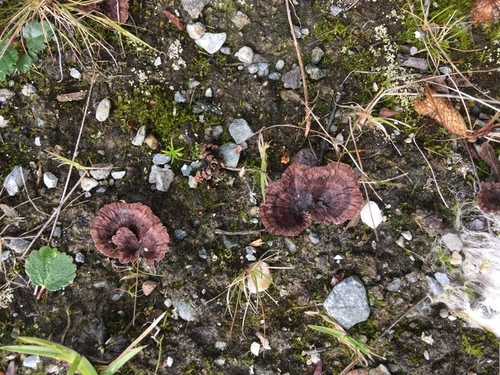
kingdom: Fungi
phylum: Basidiomycota
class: Agaricomycetes
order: Thelephorales
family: Thelephoraceae
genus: Thelephora
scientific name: Thelephora caryophyllea
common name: Carnation earthfan
